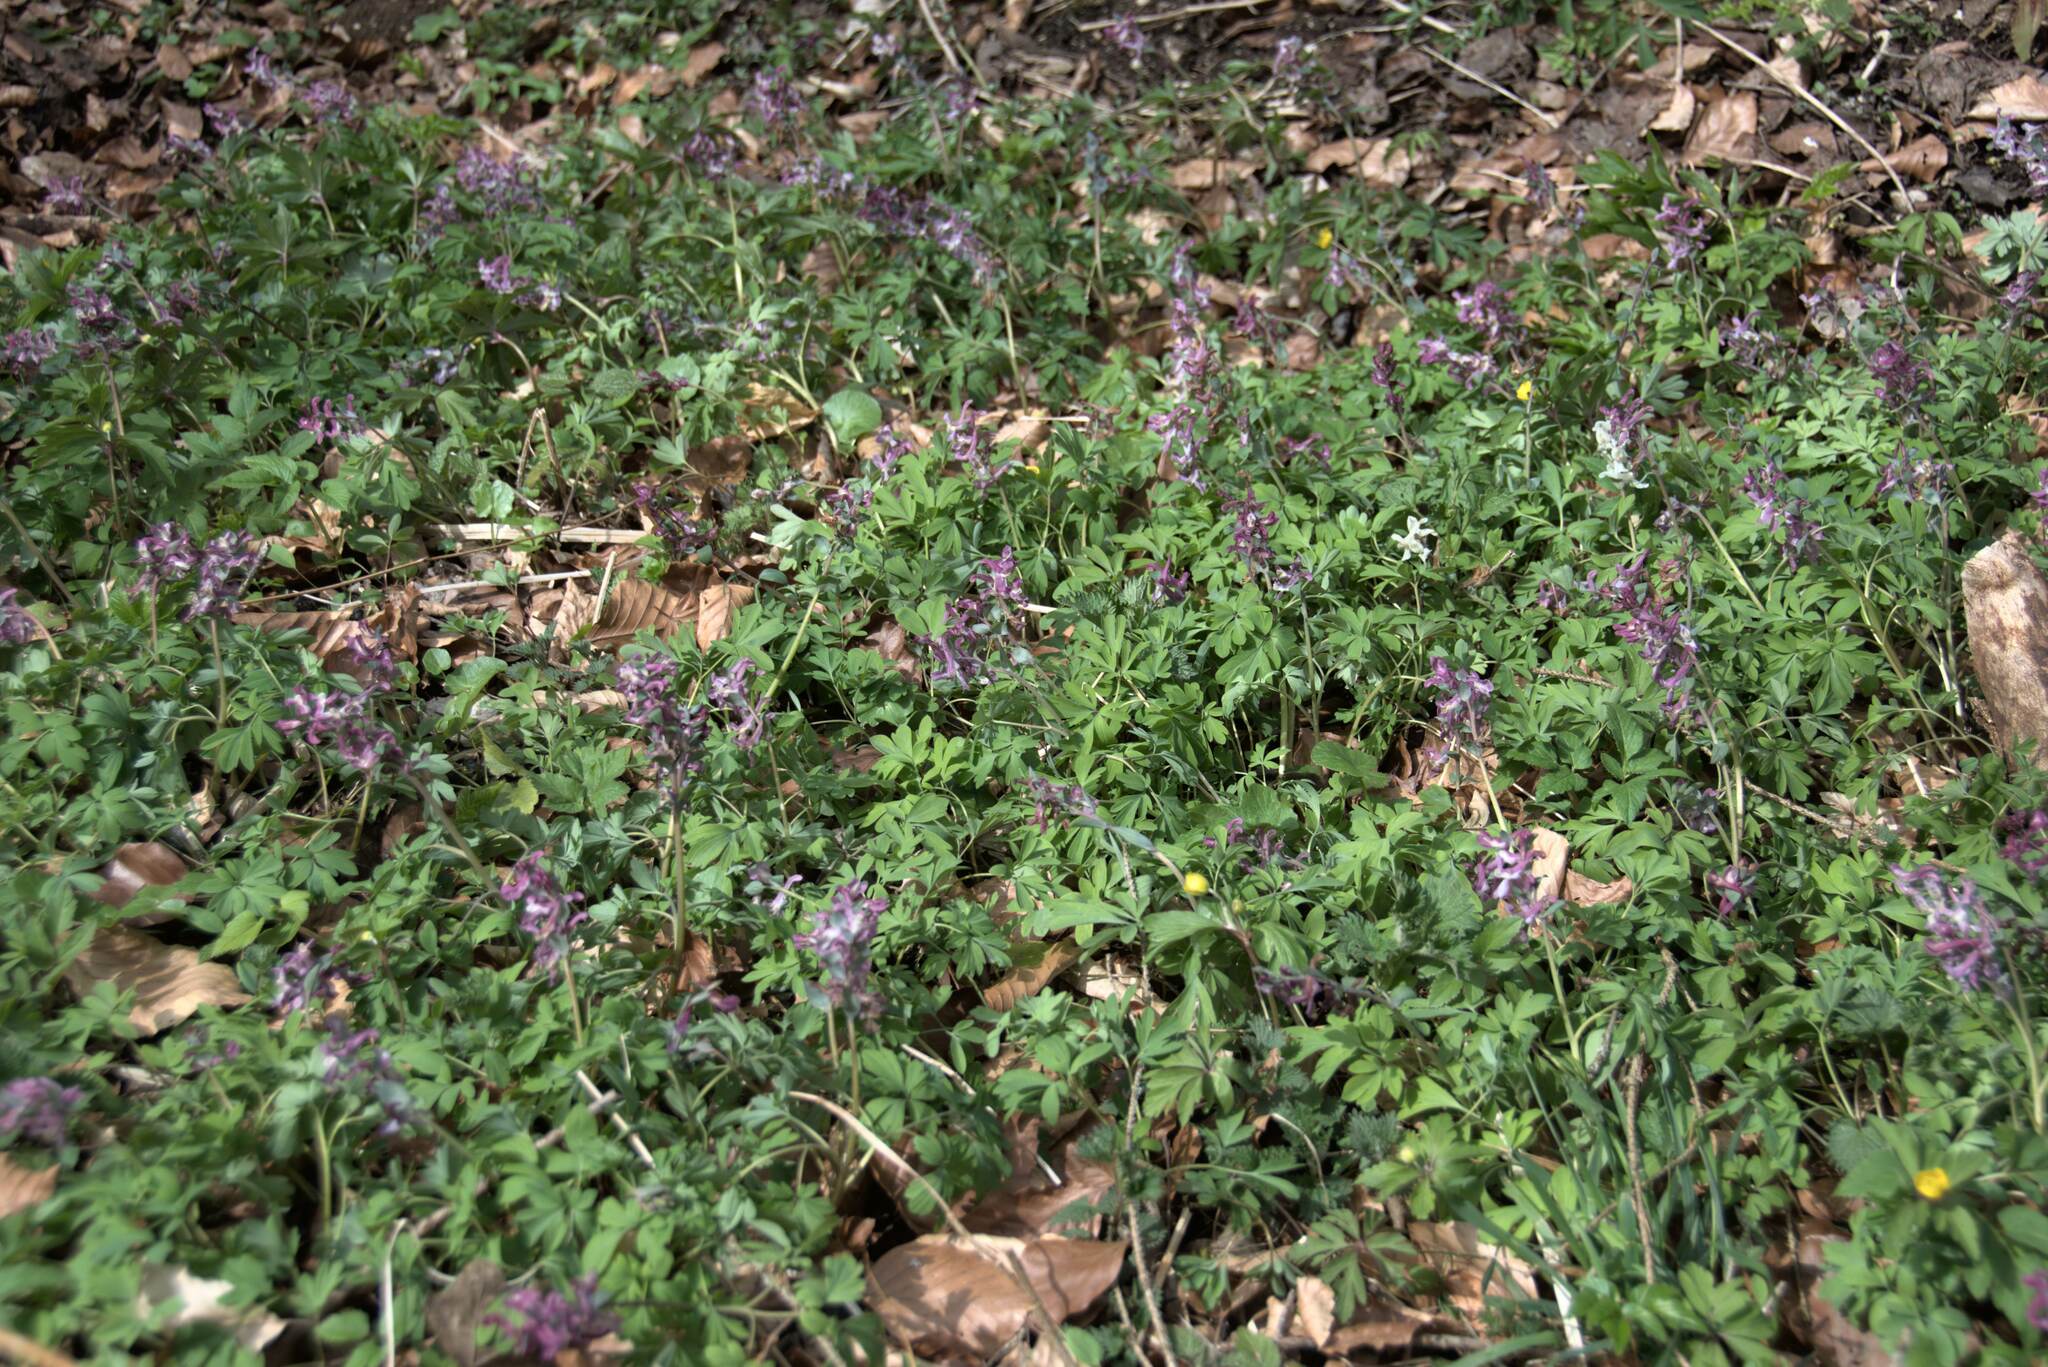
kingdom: Plantae
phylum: Tracheophyta
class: Magnoliopsida
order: Ranunculales
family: Papaveraceae
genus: Corydalis
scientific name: Corydalis cava
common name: Hollowroot
